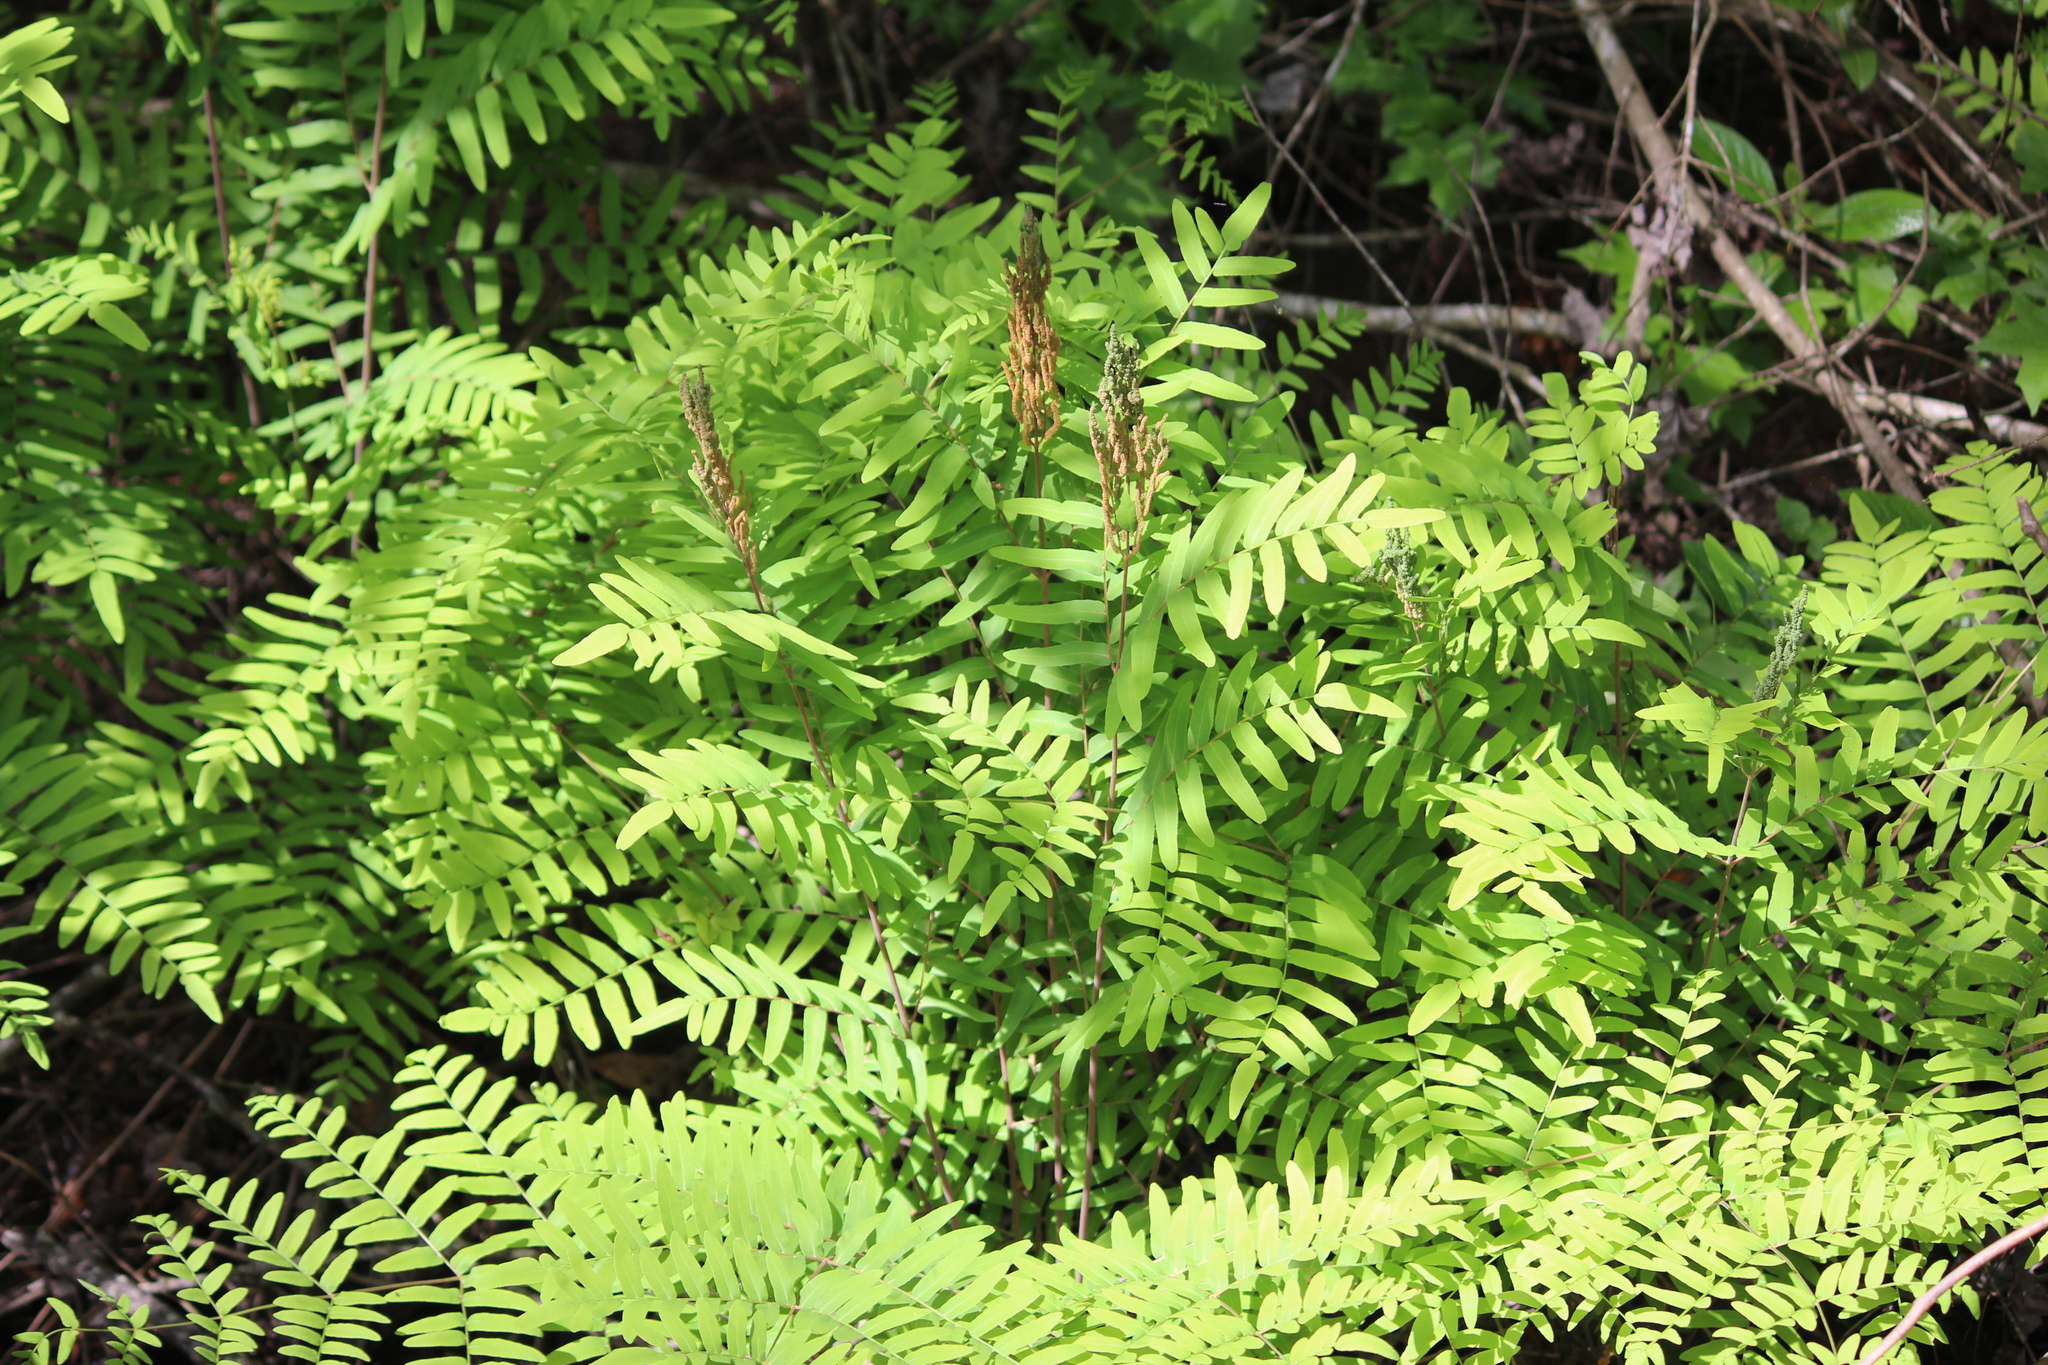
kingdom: Plantae
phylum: Tracheophyta
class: Polypodiopsida
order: Osmundales
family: Osmundaceae
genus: Osmunda
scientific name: Osmunda spectabilis
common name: American royal fern
